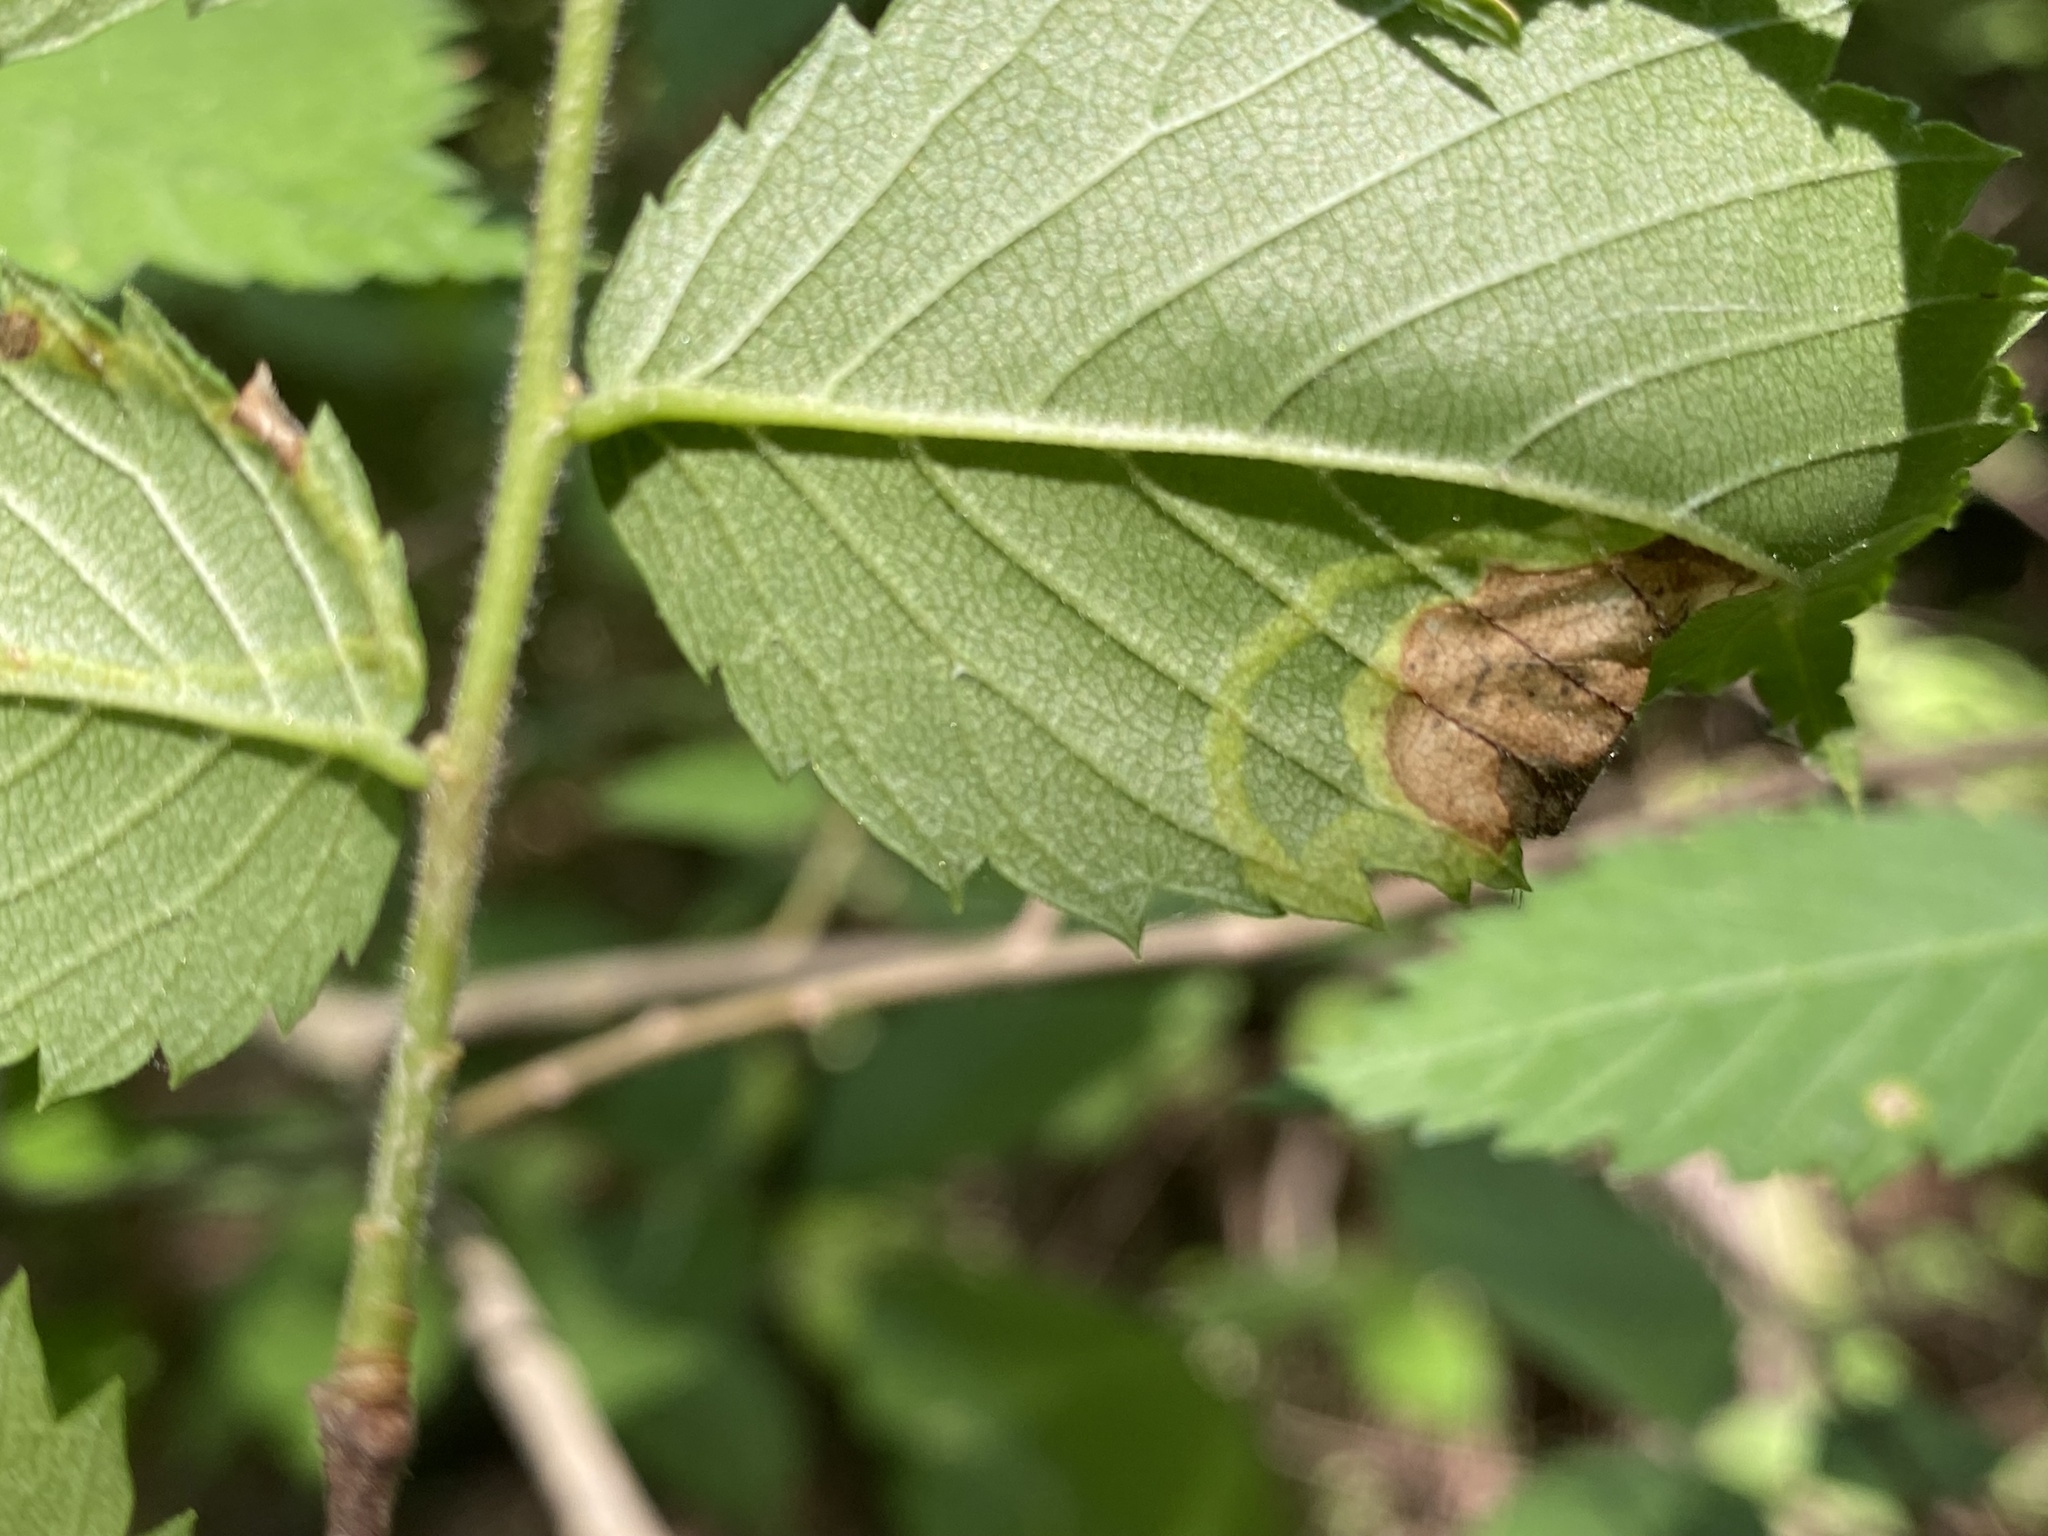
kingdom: Animalia
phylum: Arthropoda
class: Insecta
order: Diptera
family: Agromyzidae
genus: Agromyza
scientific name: Agromyza aristata
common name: Elm agromyzid leafminer
